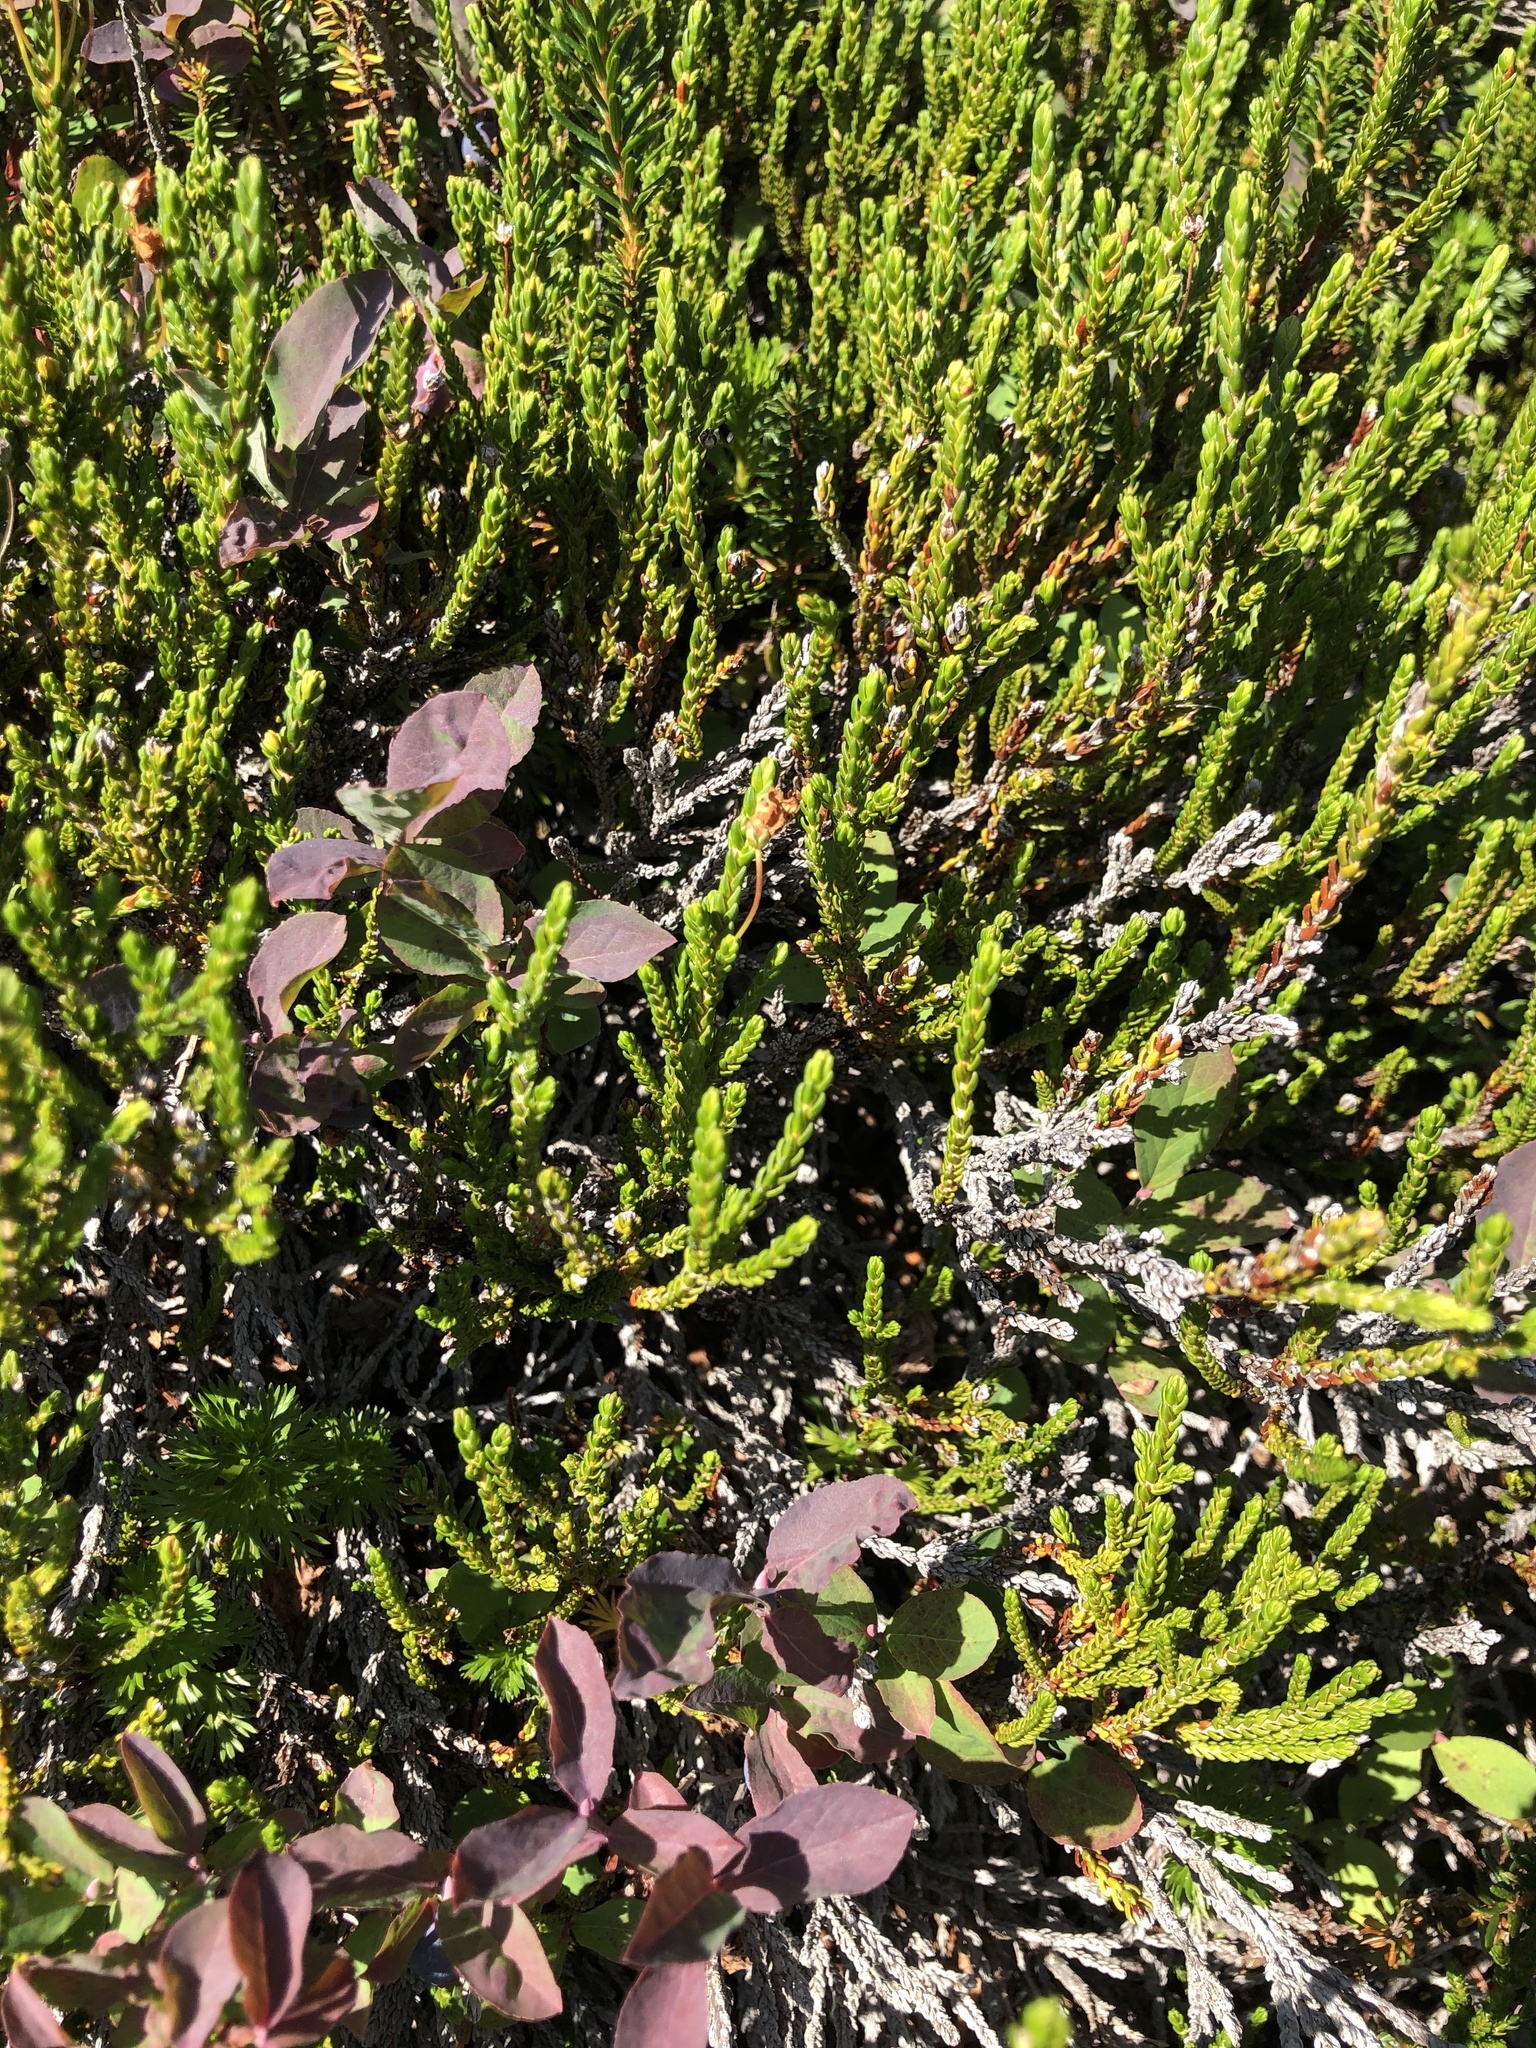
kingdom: Plantae
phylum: Tracheophyta
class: Magnoliopsida
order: Ericales
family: Ericaceae
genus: Cassiope
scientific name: Cassiope mertensiana
